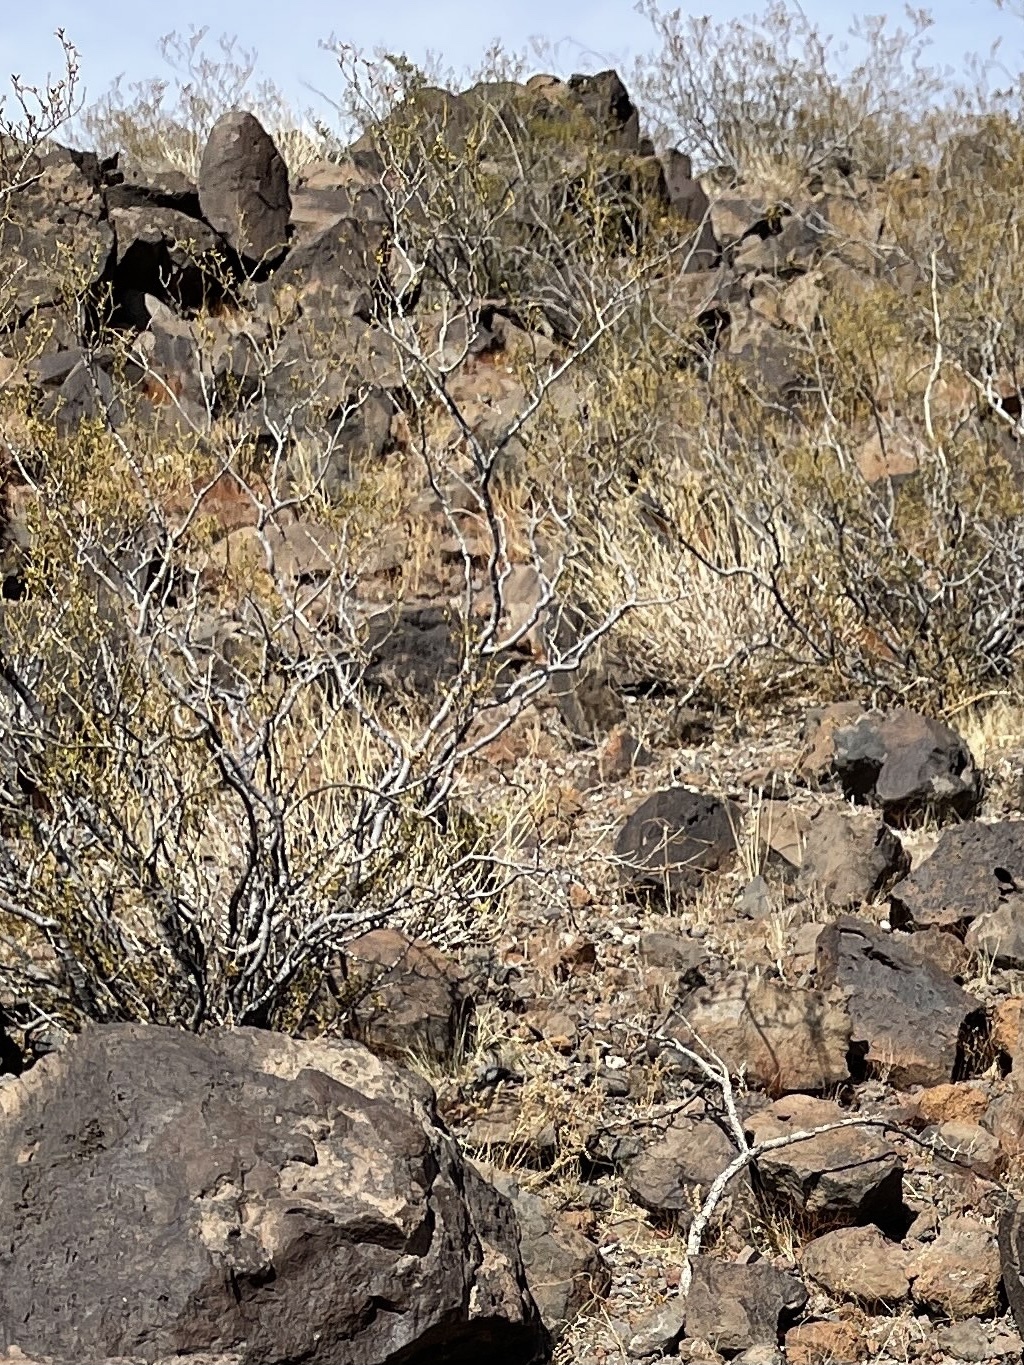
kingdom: Plantae
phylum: Tracheophyta
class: Magnoliopsida
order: Zygophyllales
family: Zygophyllaceae
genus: Larrea
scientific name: Larrea tridentata
